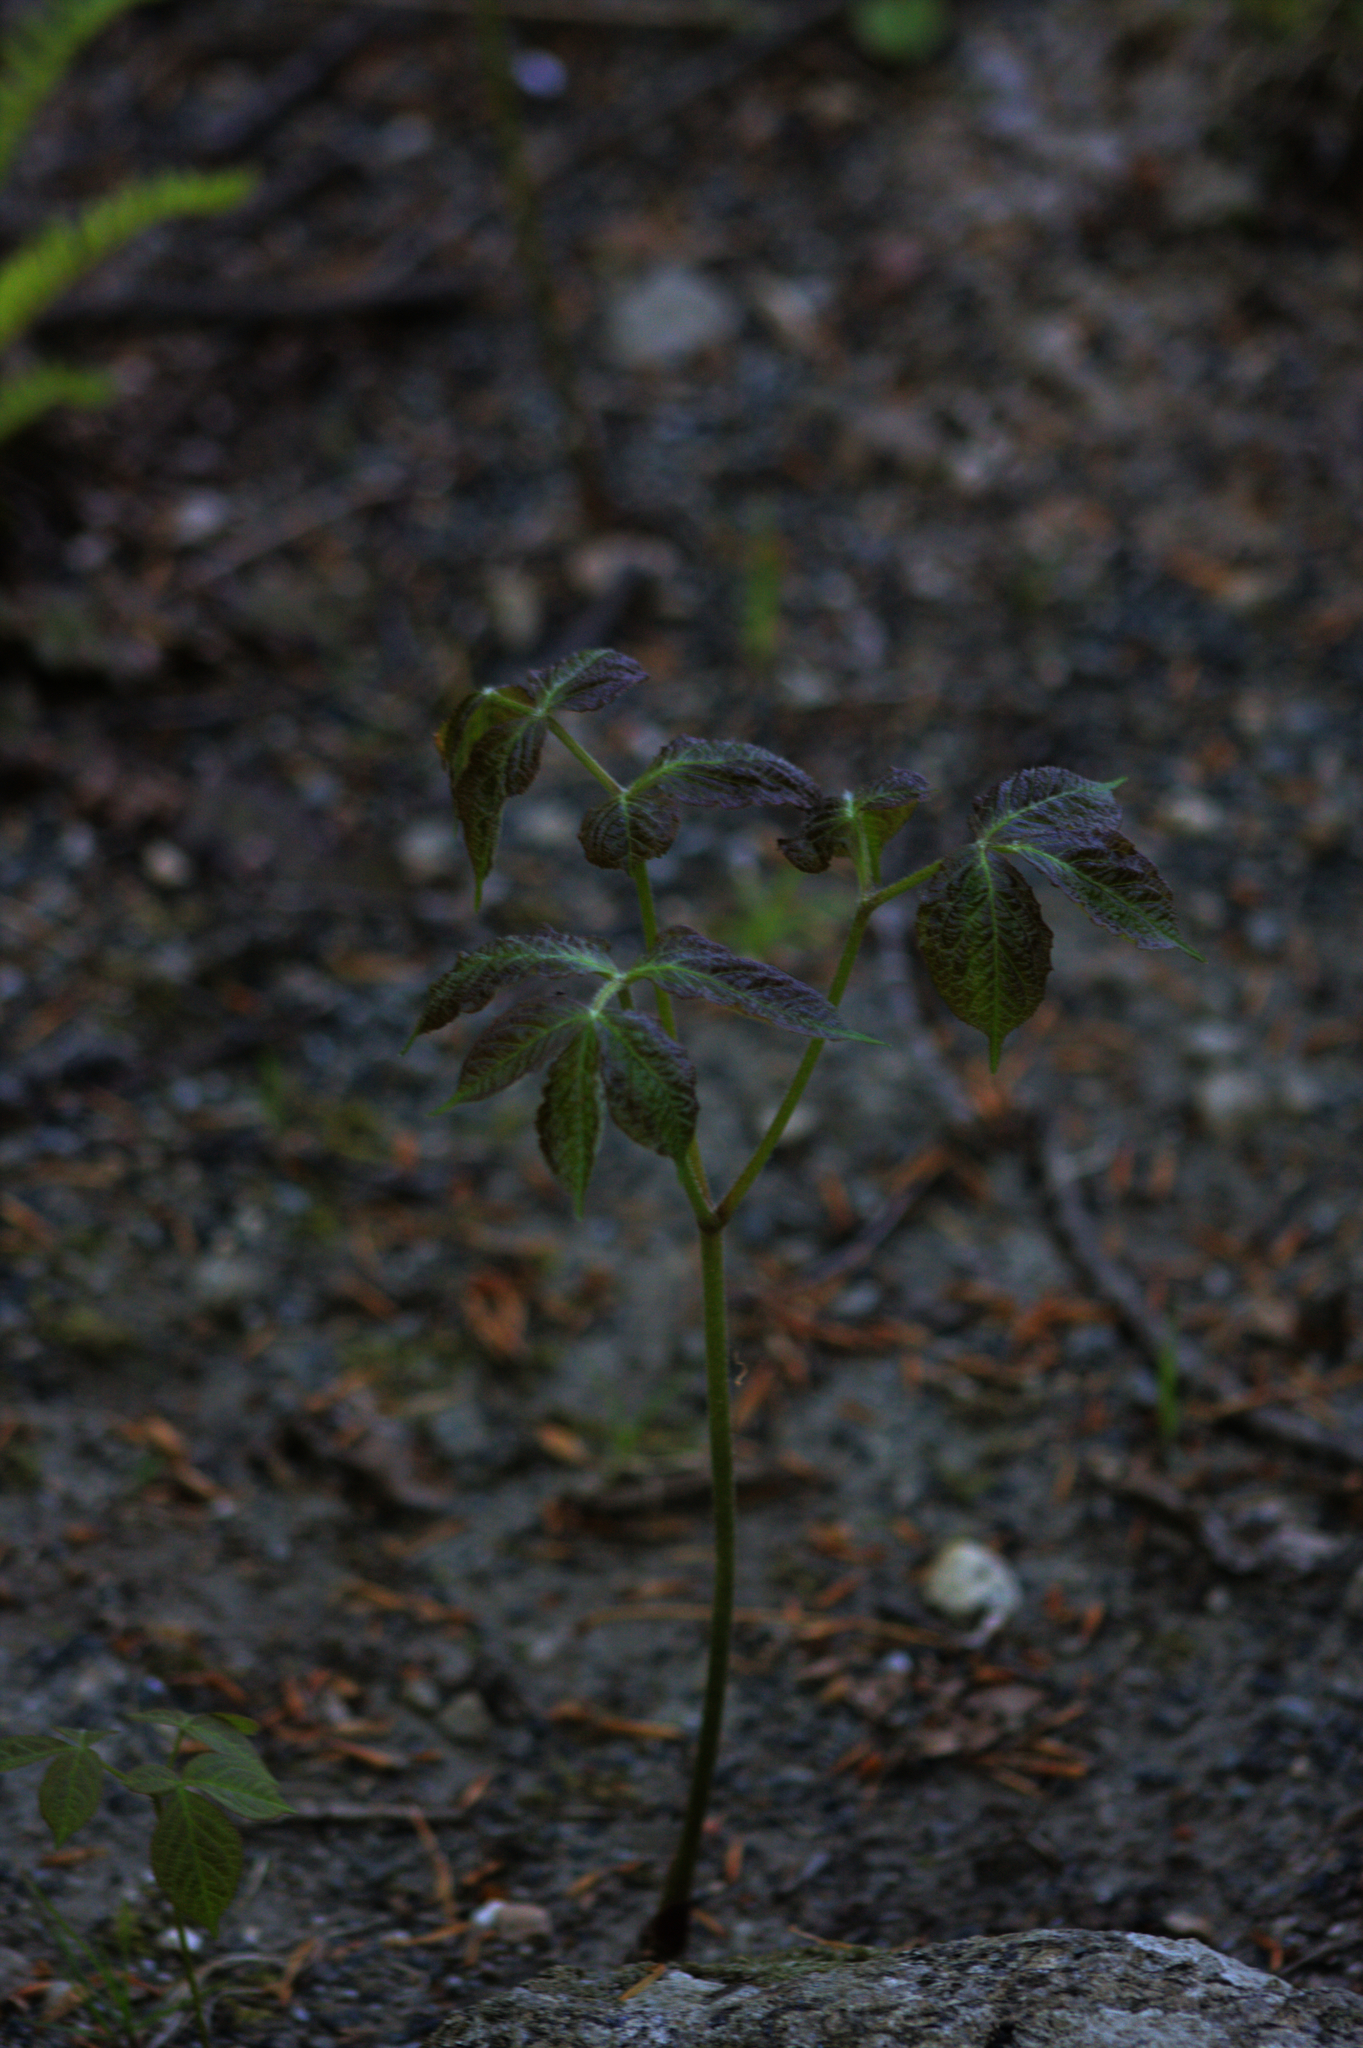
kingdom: Plantae
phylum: Tracheophyta
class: Magnoliopsida
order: Apiales
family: Araliaceae
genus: Aralia
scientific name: Aralia nudicaulis
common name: Wild sarsaparilla
